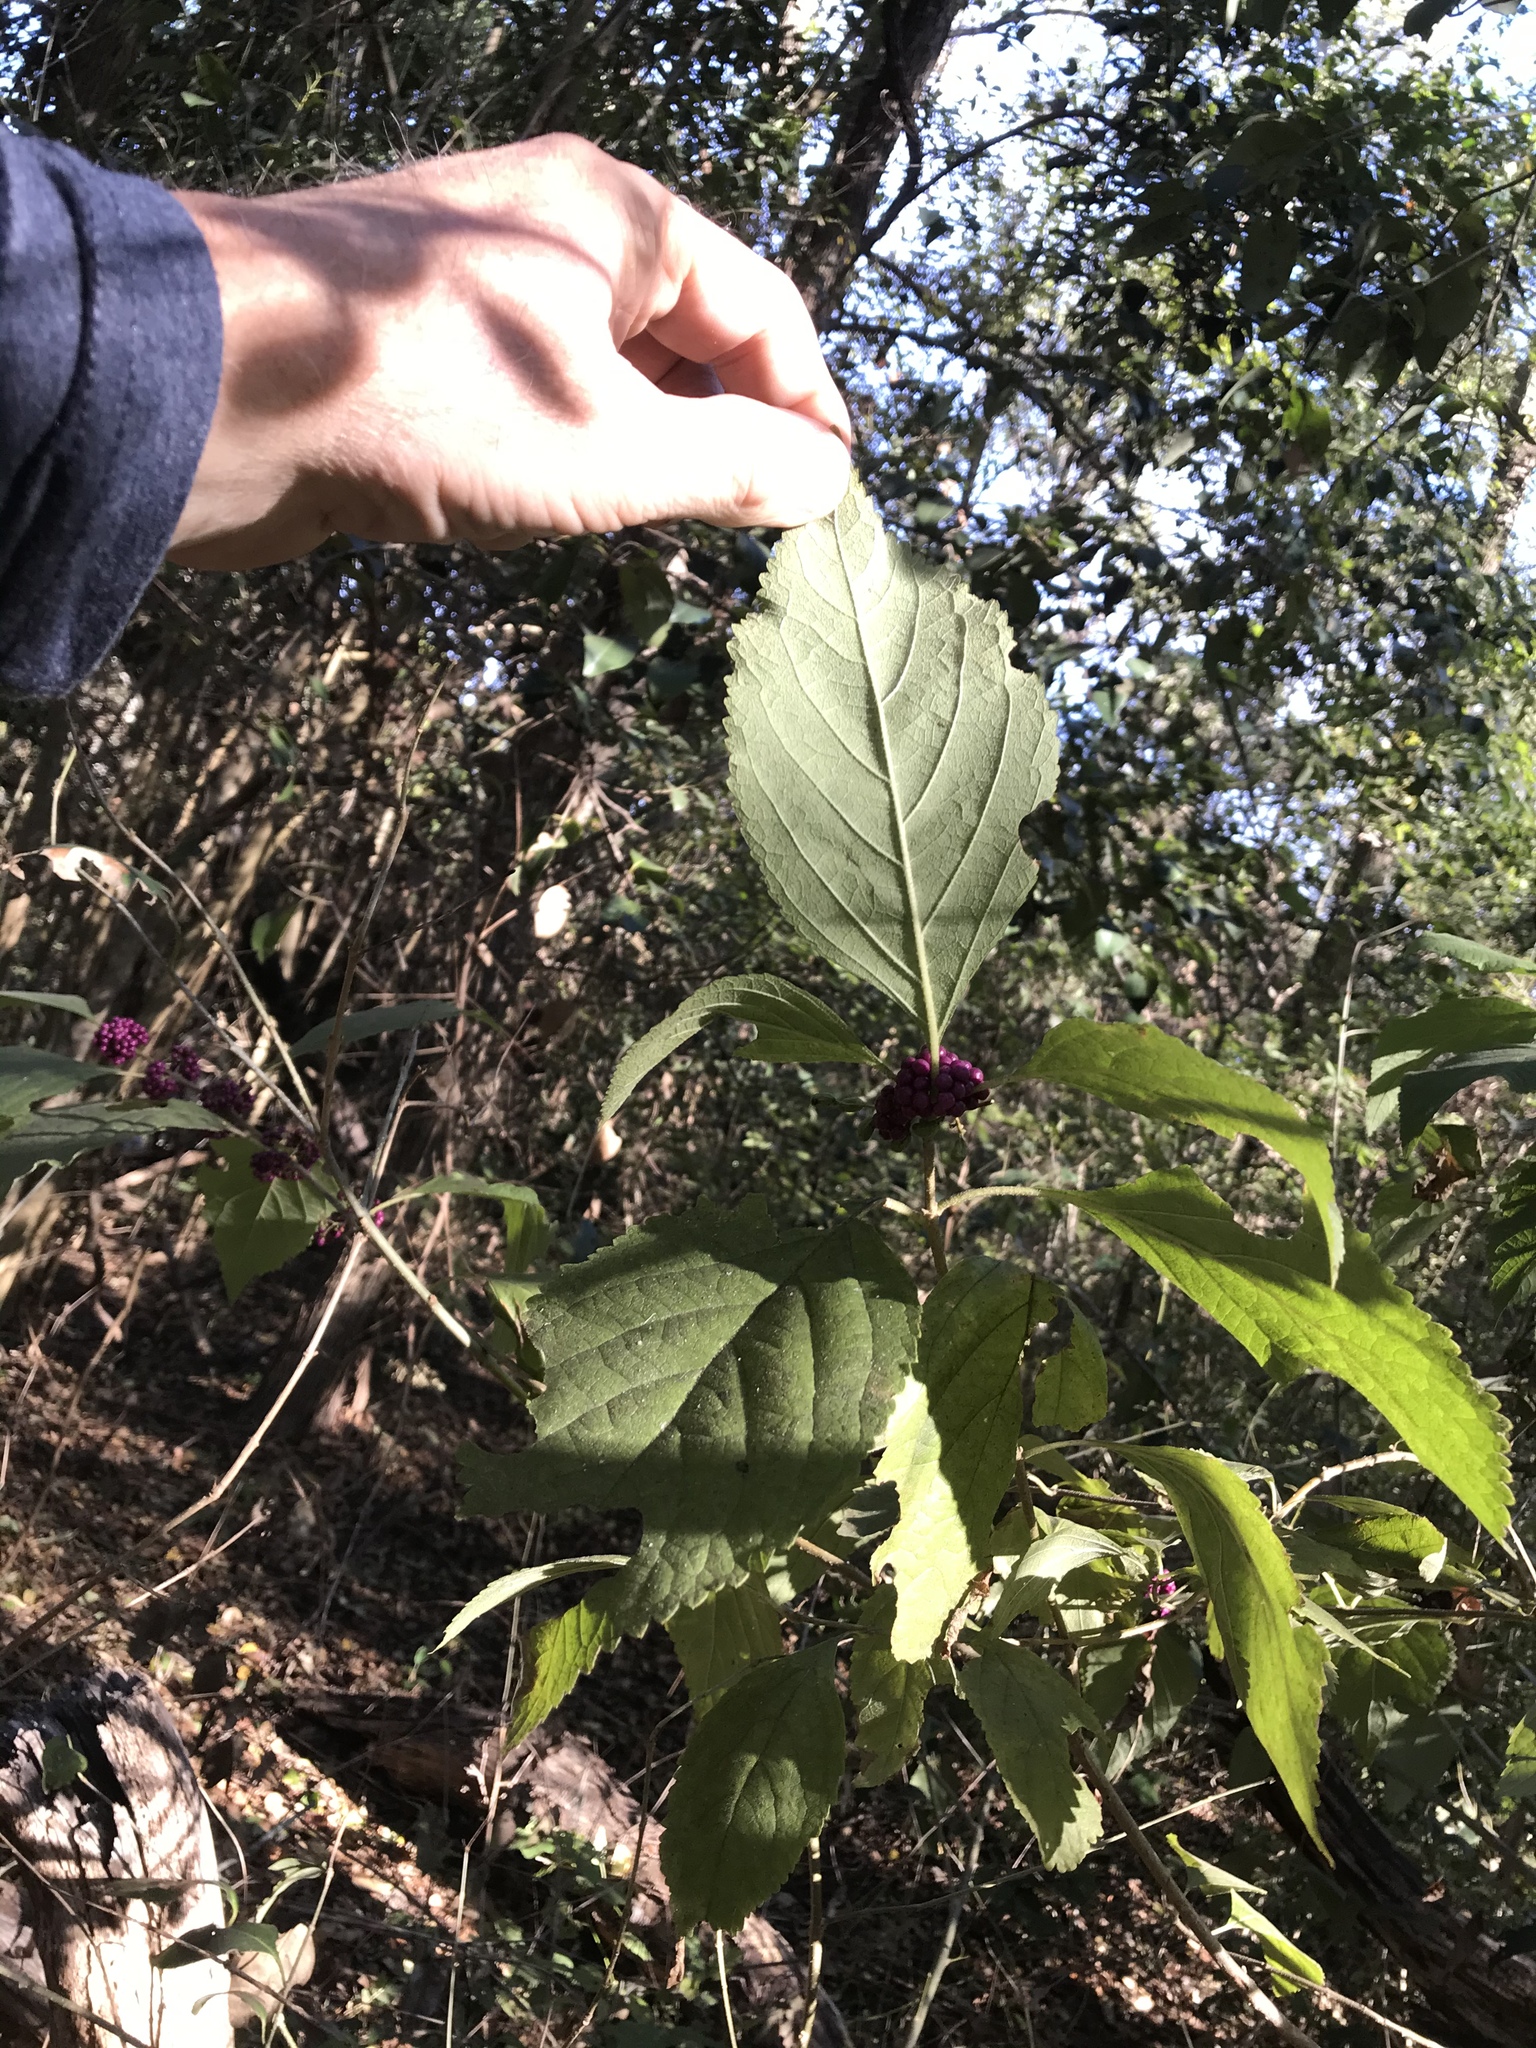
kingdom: Plantae
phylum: Tracheophyta
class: Magnoliopsida
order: Lamiales
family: Lamiaceae
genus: Callicarpa
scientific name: Callicarpa americana
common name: American beautyberry
